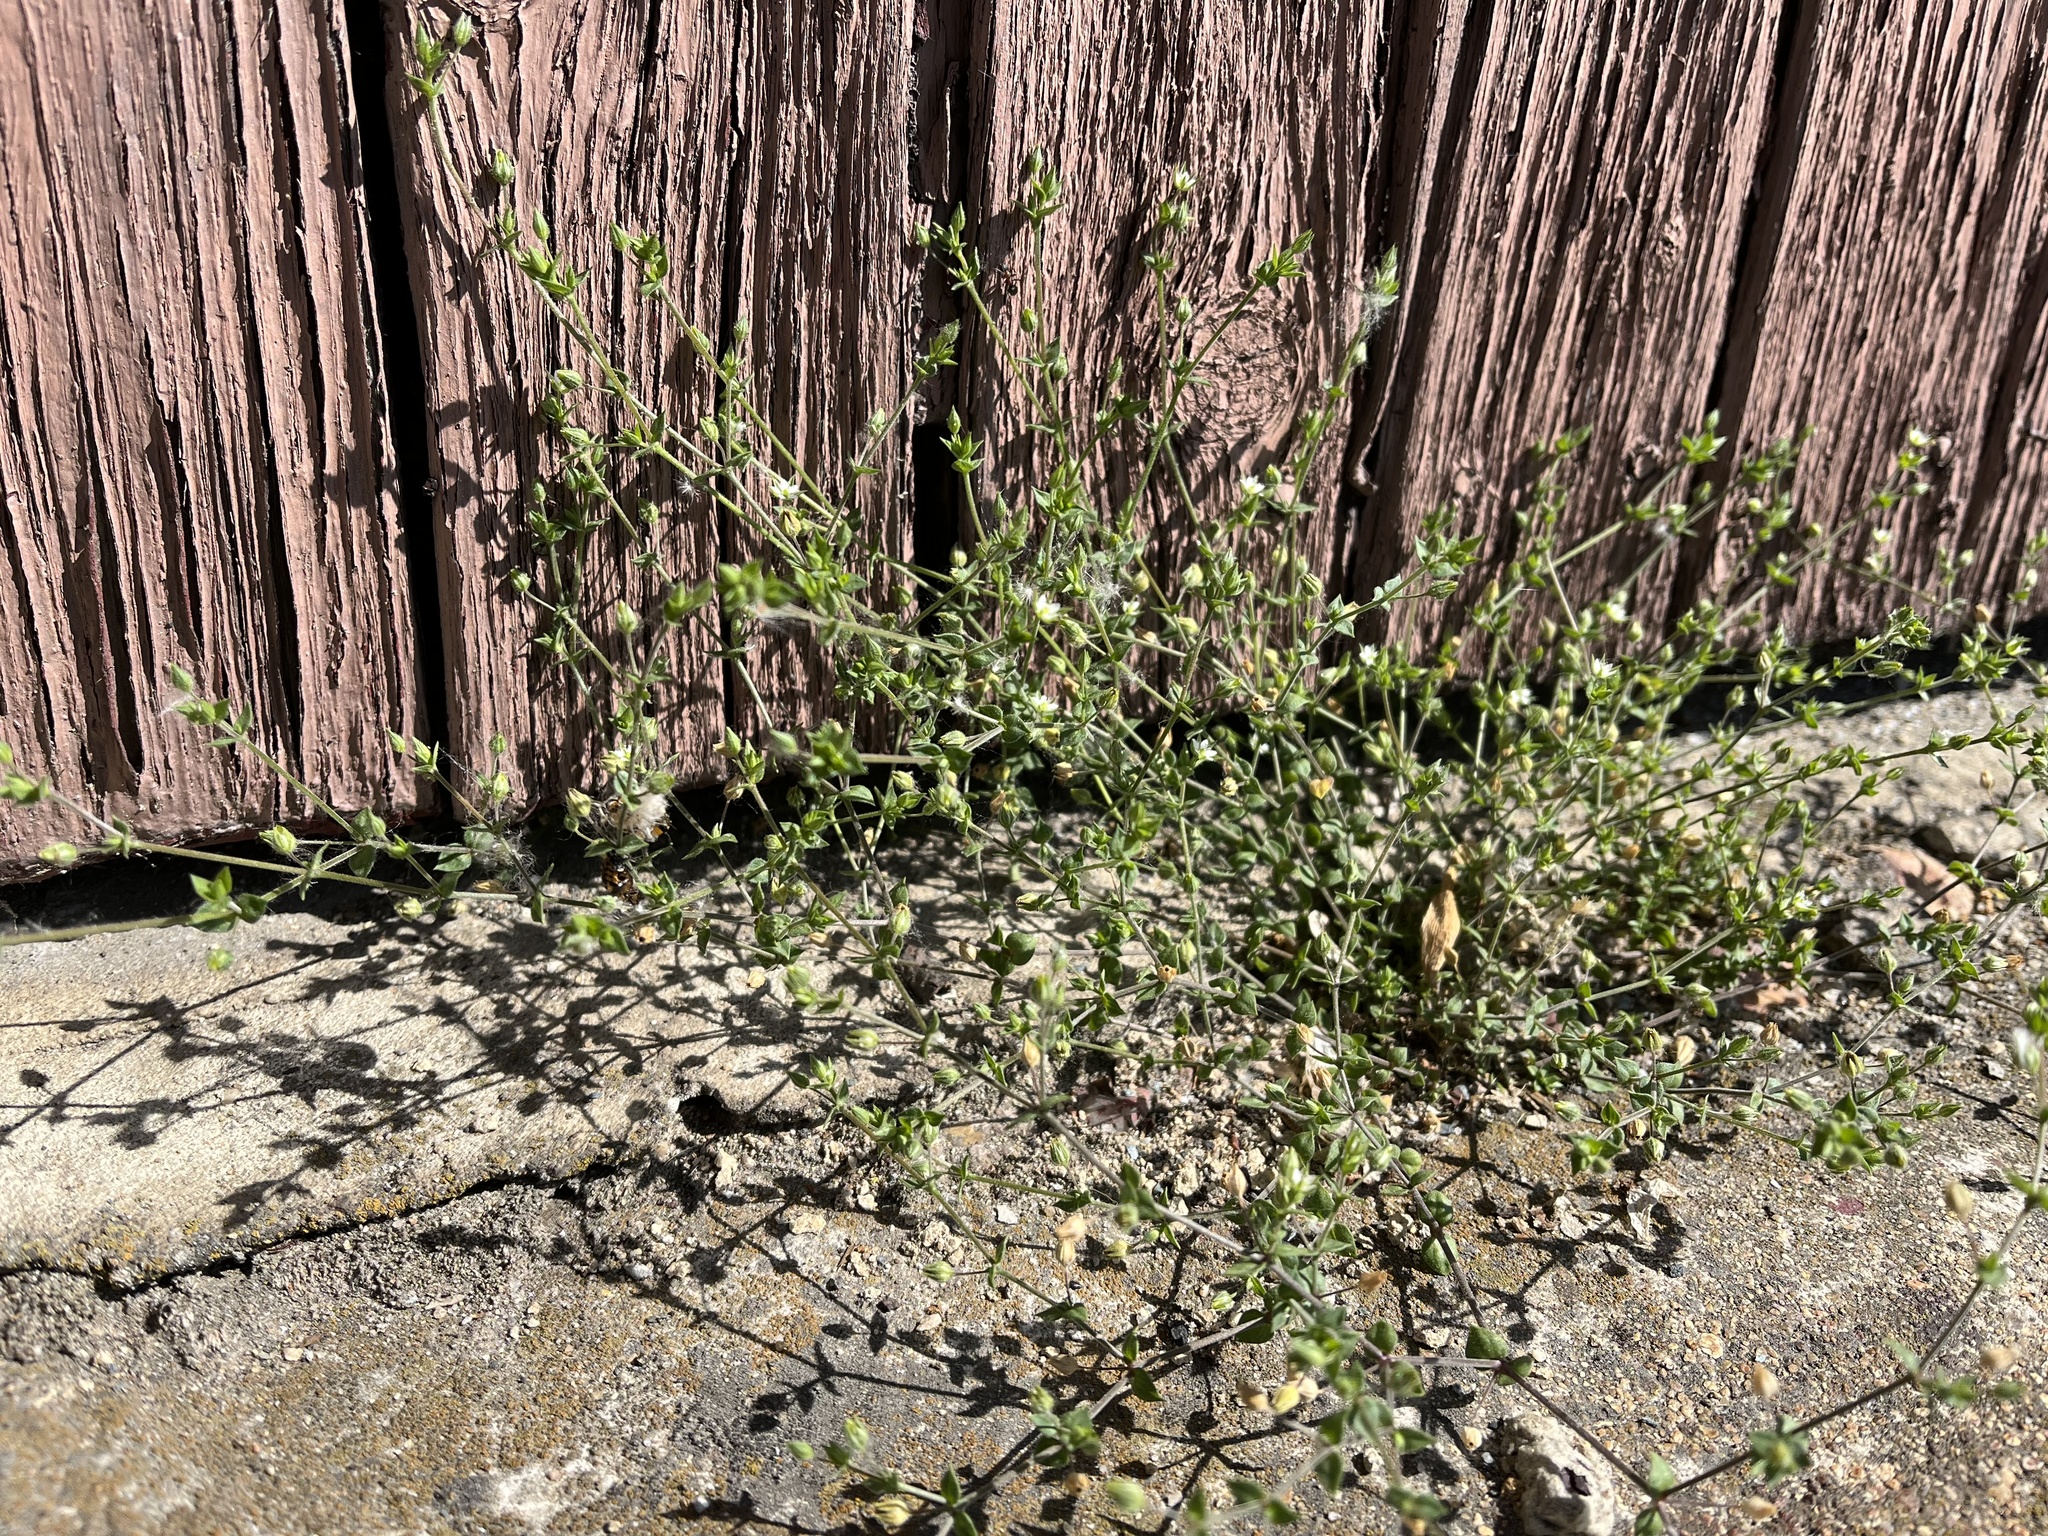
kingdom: Plantae
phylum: Tracheophyta
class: Magnoliopsida
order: Caryophyllales
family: Caryophyllaceae
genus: Arenaria
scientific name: Arenaria serpyllifolia
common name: Thyme-leaved sandwort
